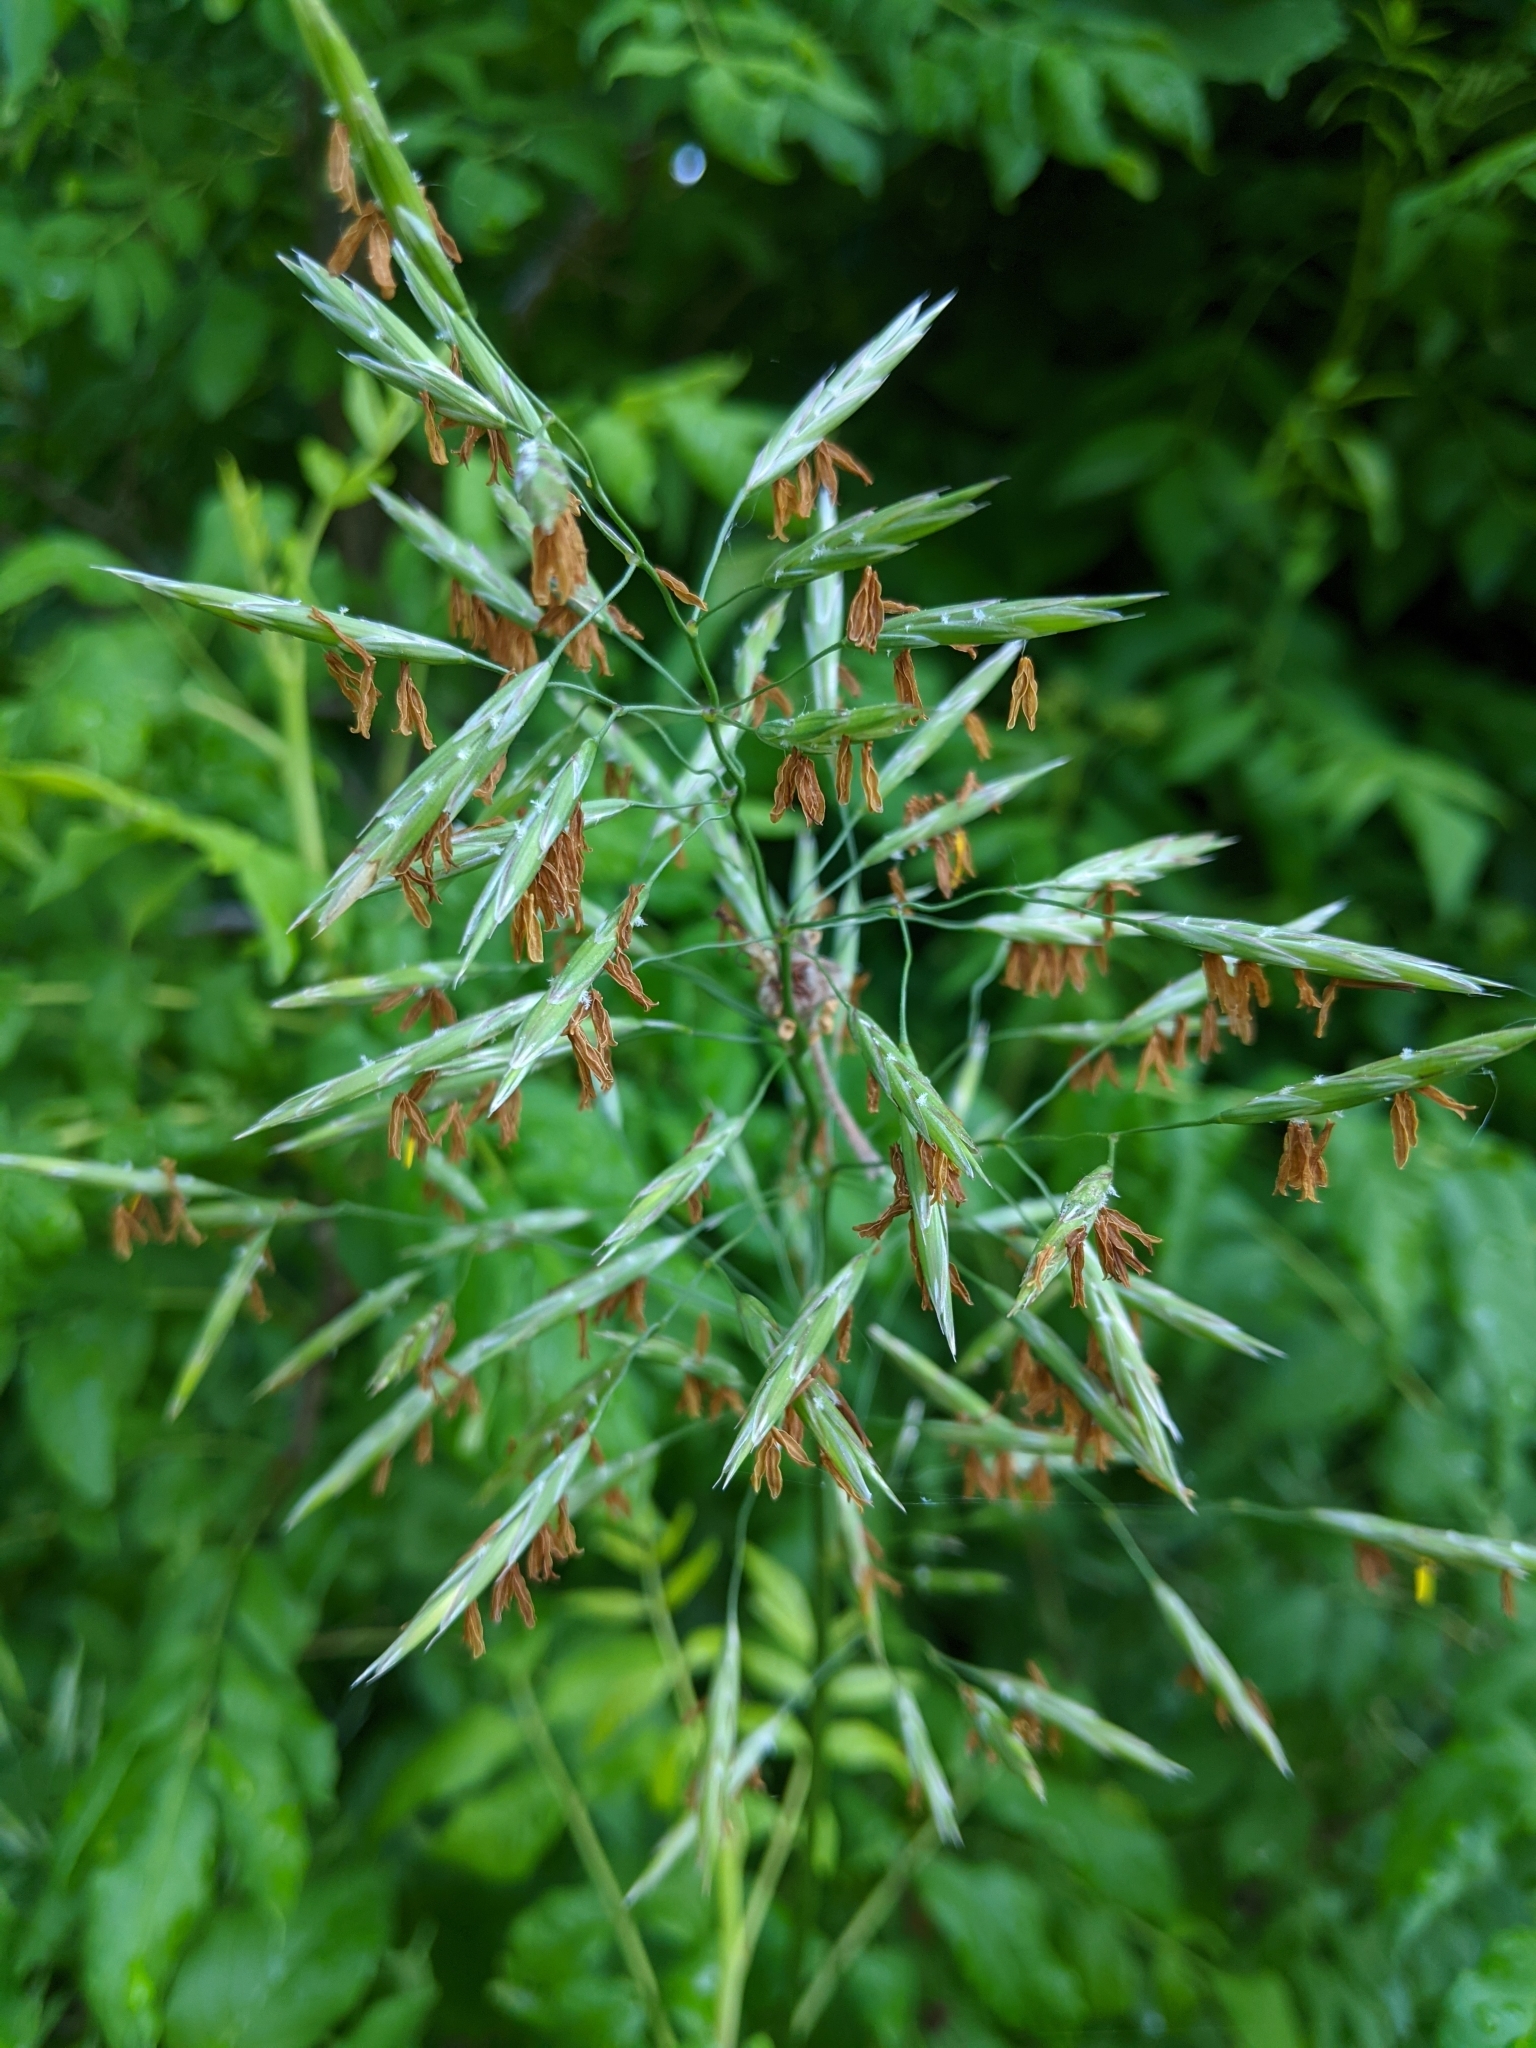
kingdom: Plantae
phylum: Tracheophyta
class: Liliopsida
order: Poales
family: Poaceae
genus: Bromus
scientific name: Bromus inermis
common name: Smooth brome
